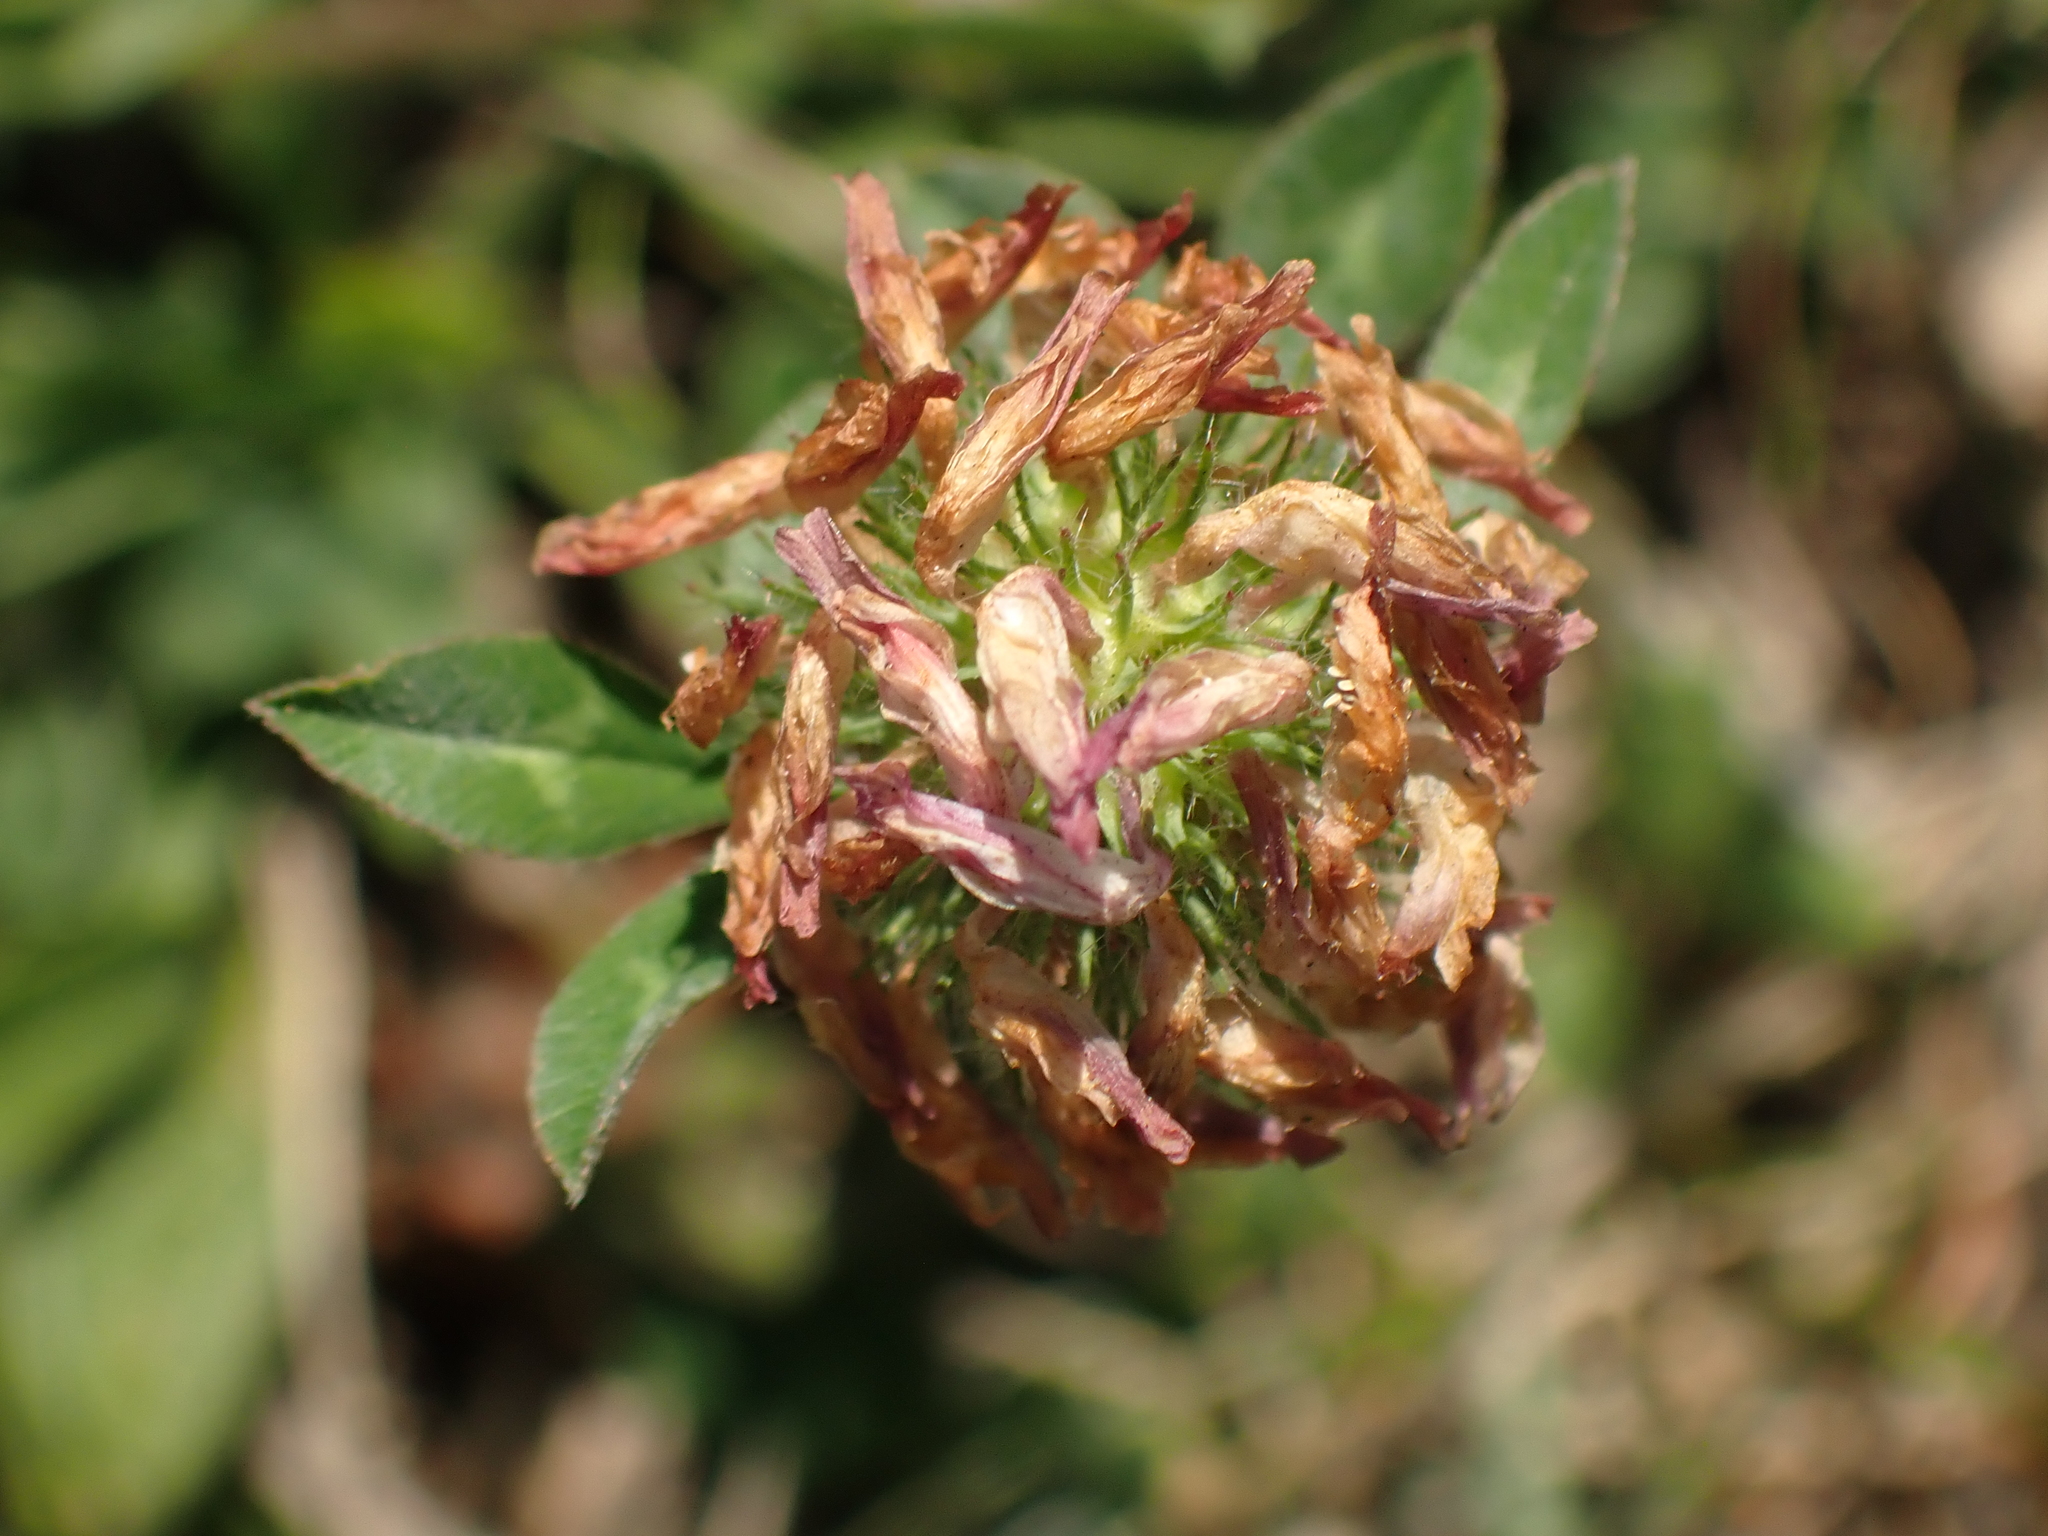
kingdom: Plantae
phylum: Tracheophyta
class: Magnoliopsida
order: Fabales
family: Fabaceae
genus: Trifolium
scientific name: Trifolium pratense
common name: Red clover
